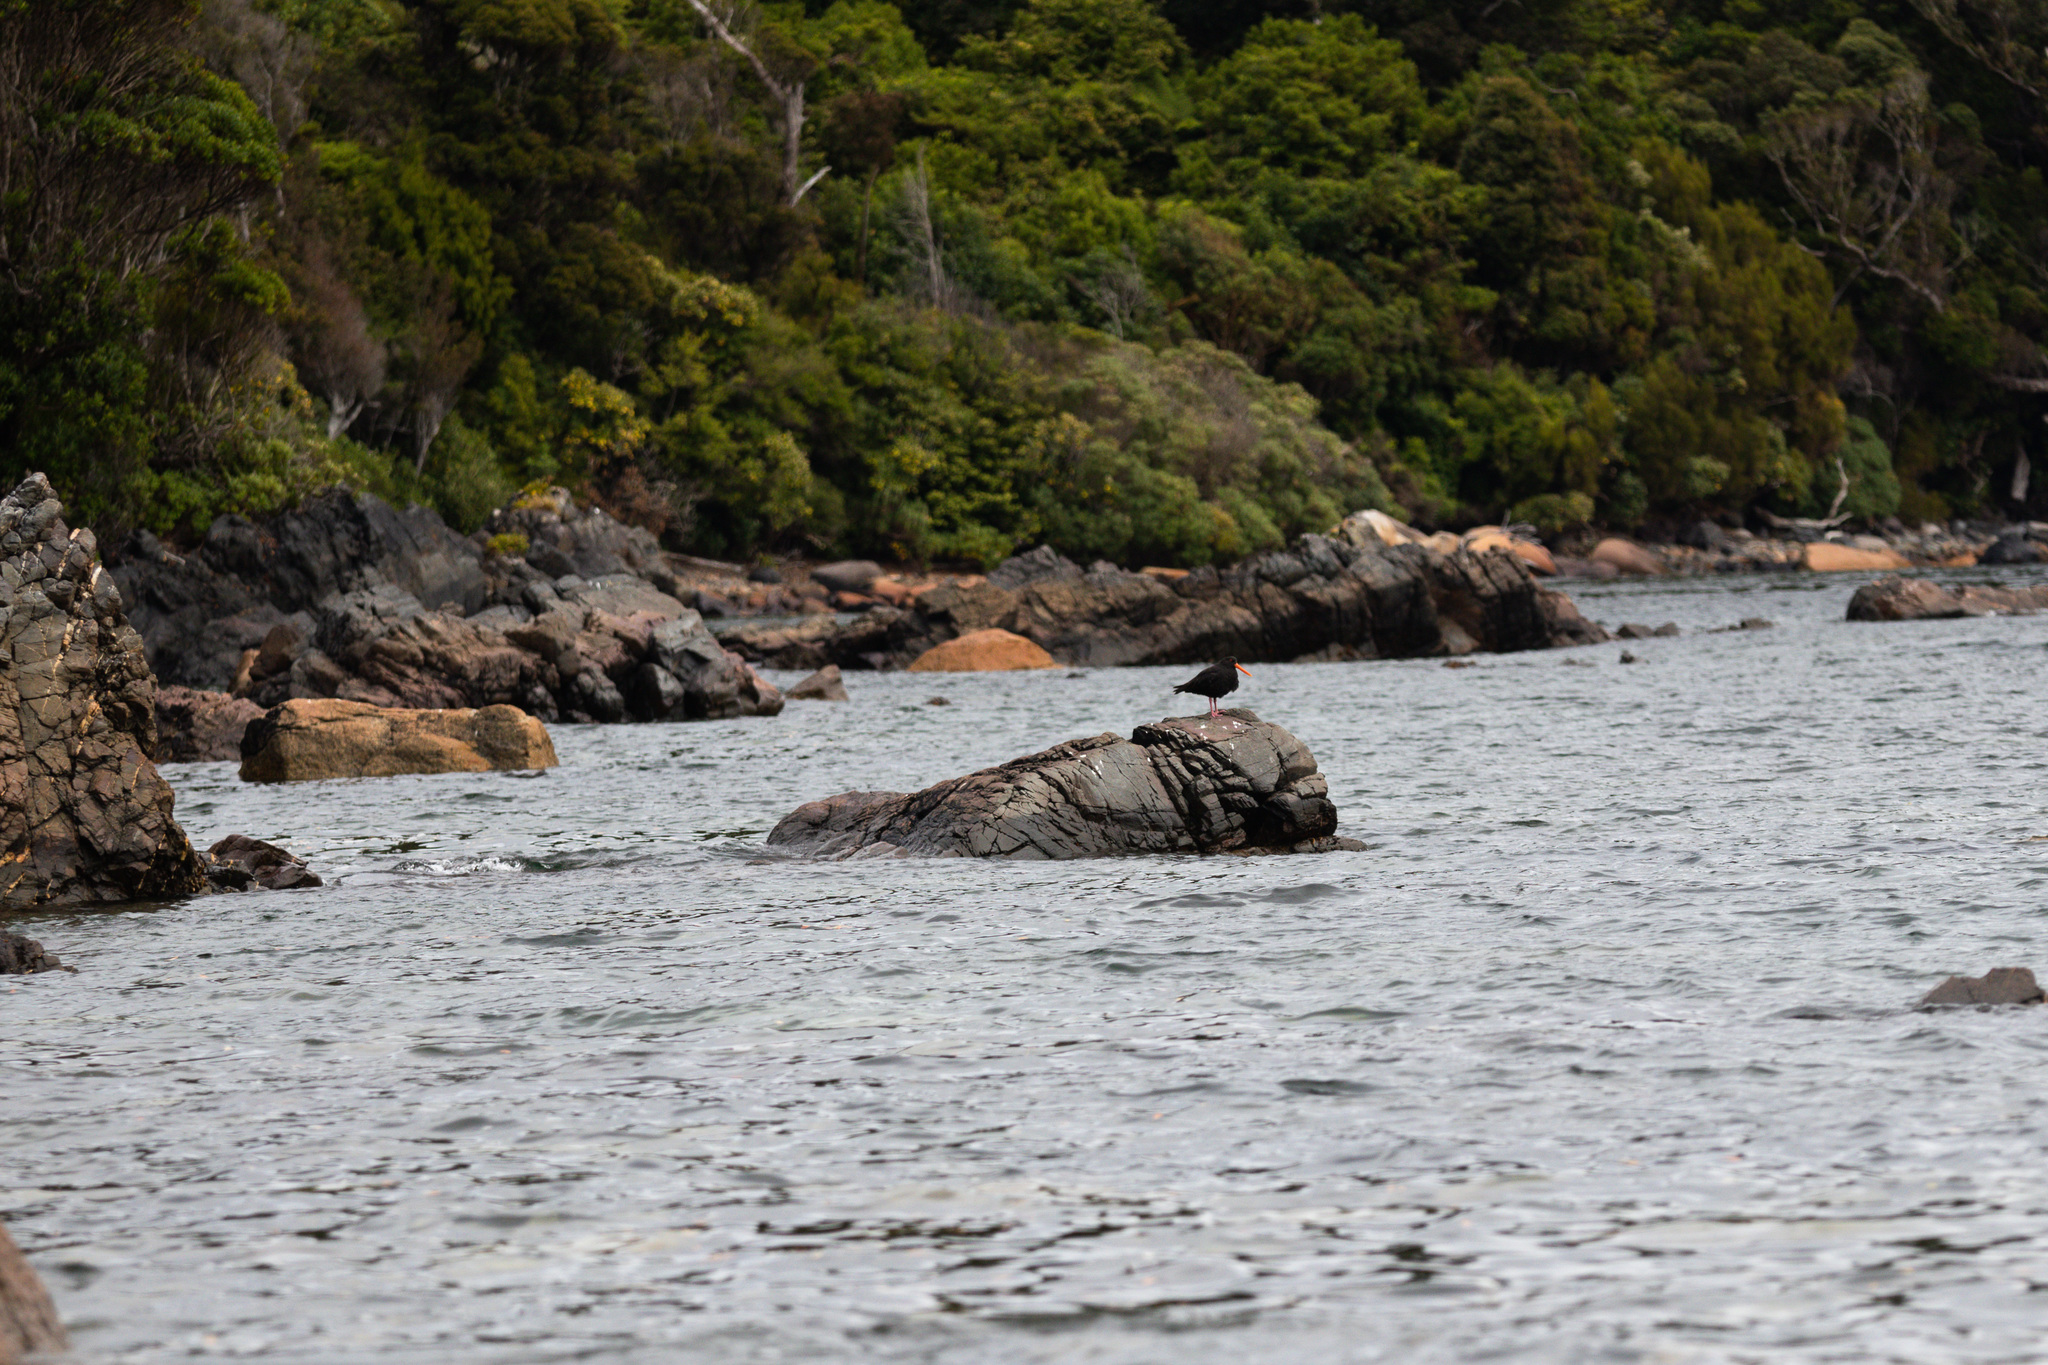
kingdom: Animalia
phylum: Chordata
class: Aves
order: Charadriiformes
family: Haematopodidae
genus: Haematopus
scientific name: Haematopus unicolor
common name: Variable oystercatcher
